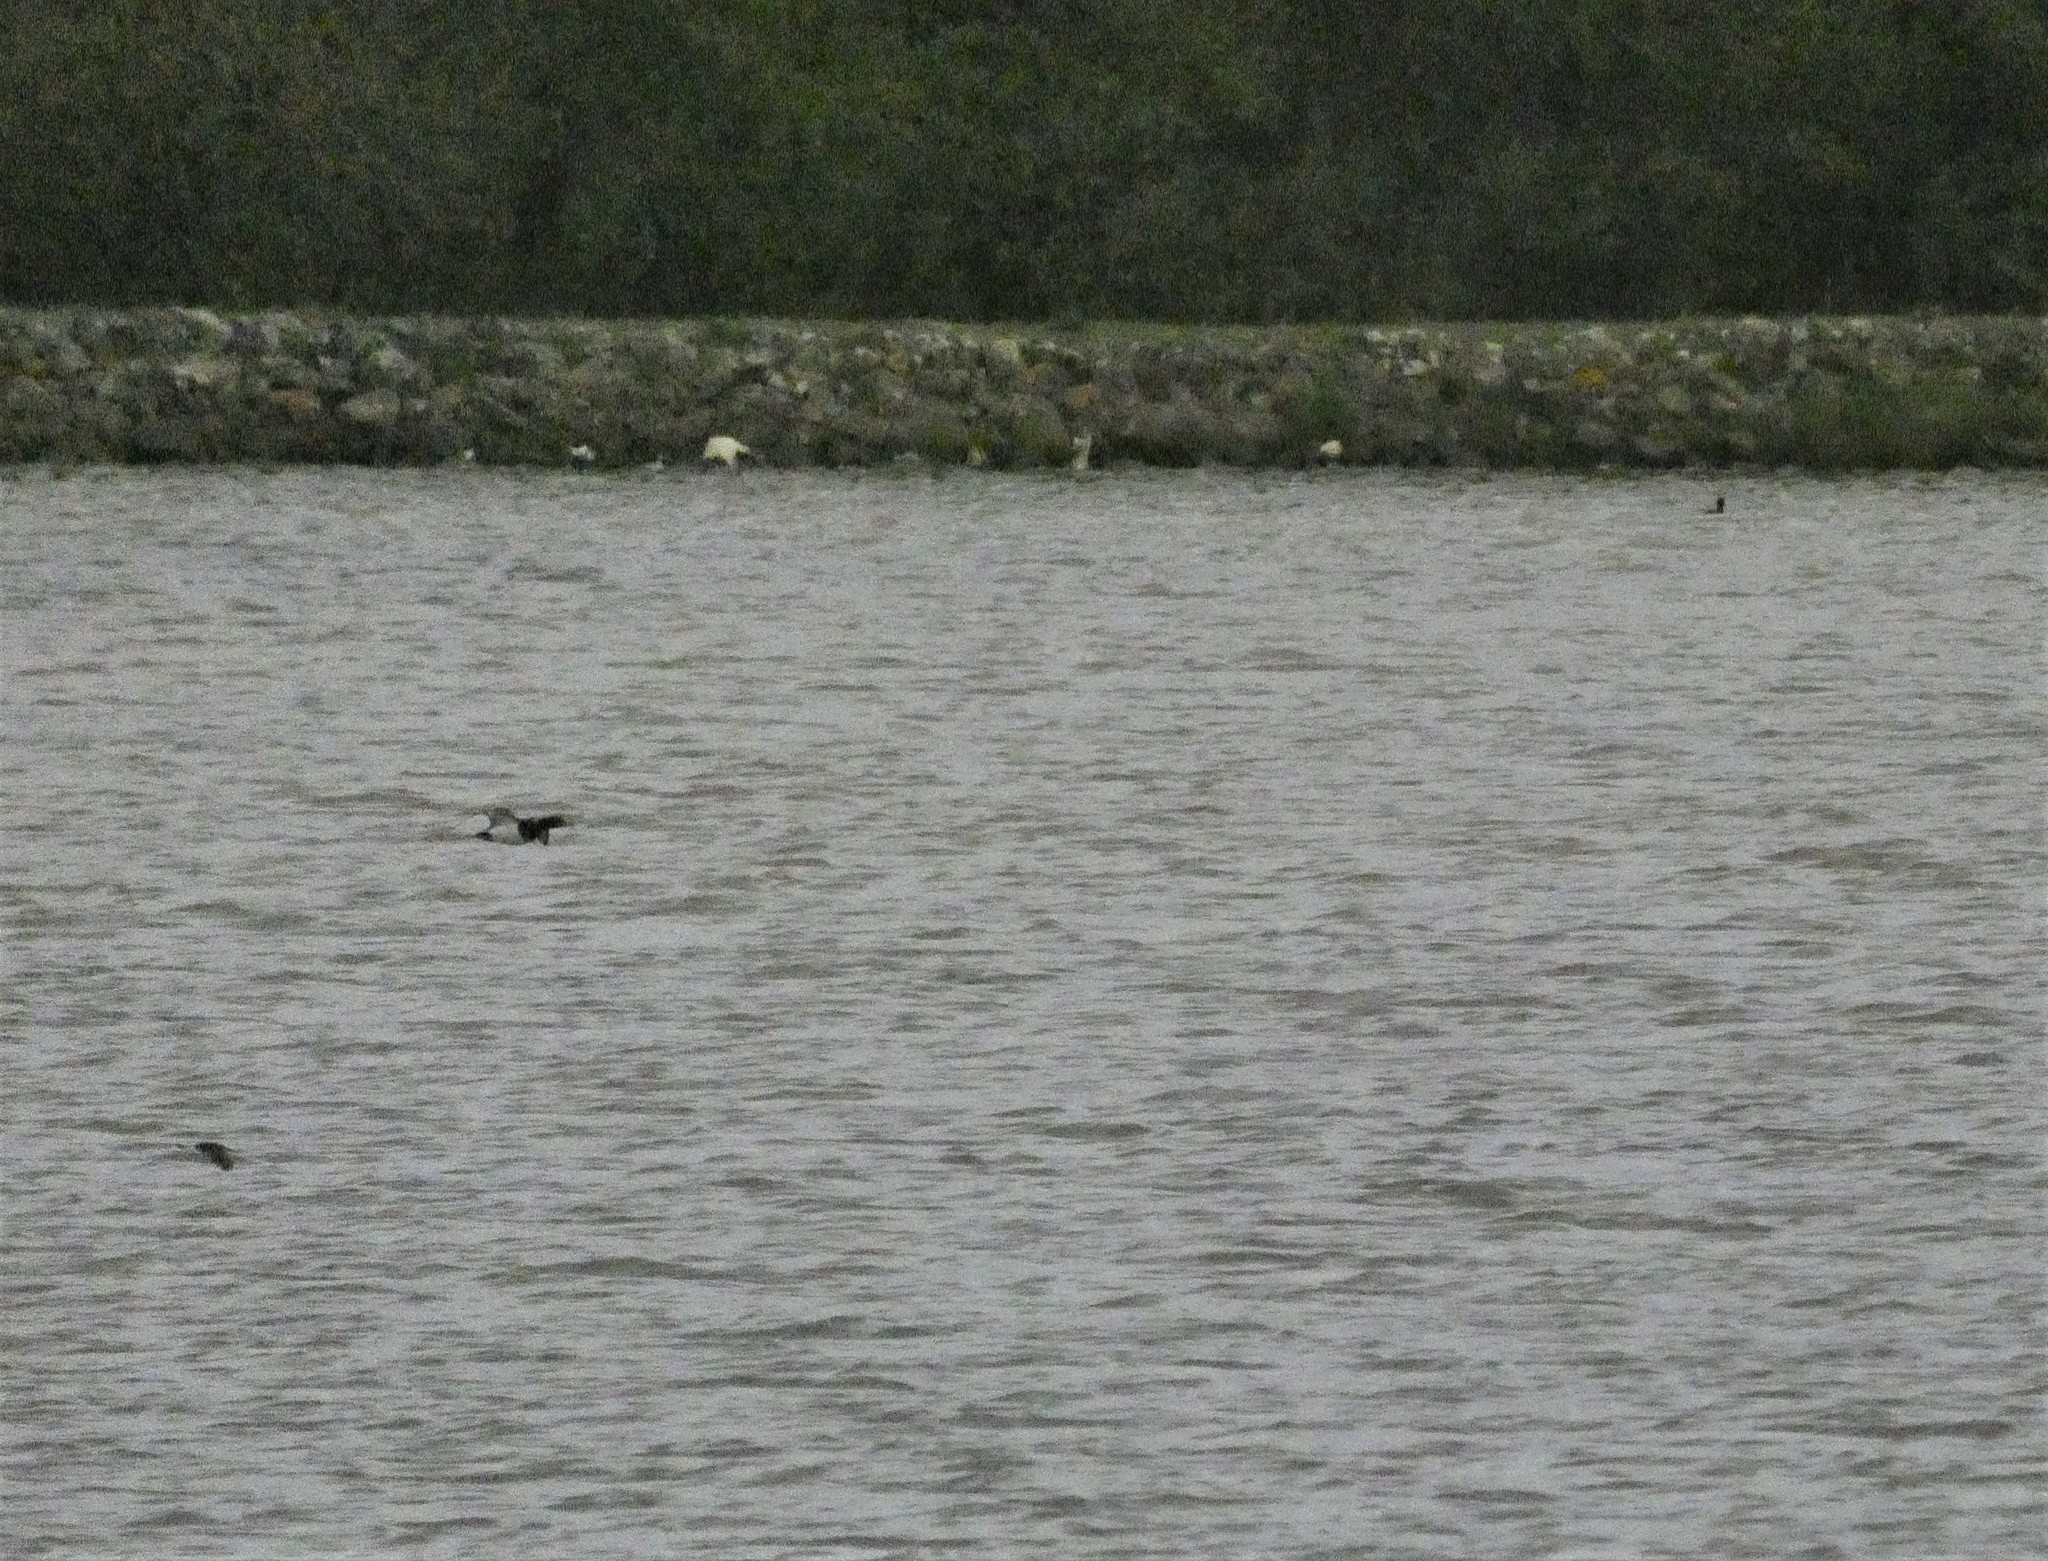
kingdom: Animalia
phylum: Chordata
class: Aves
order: Anseriformes
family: Anatidae
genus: Aythya
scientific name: Aythya fuligula
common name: Tufted duck
